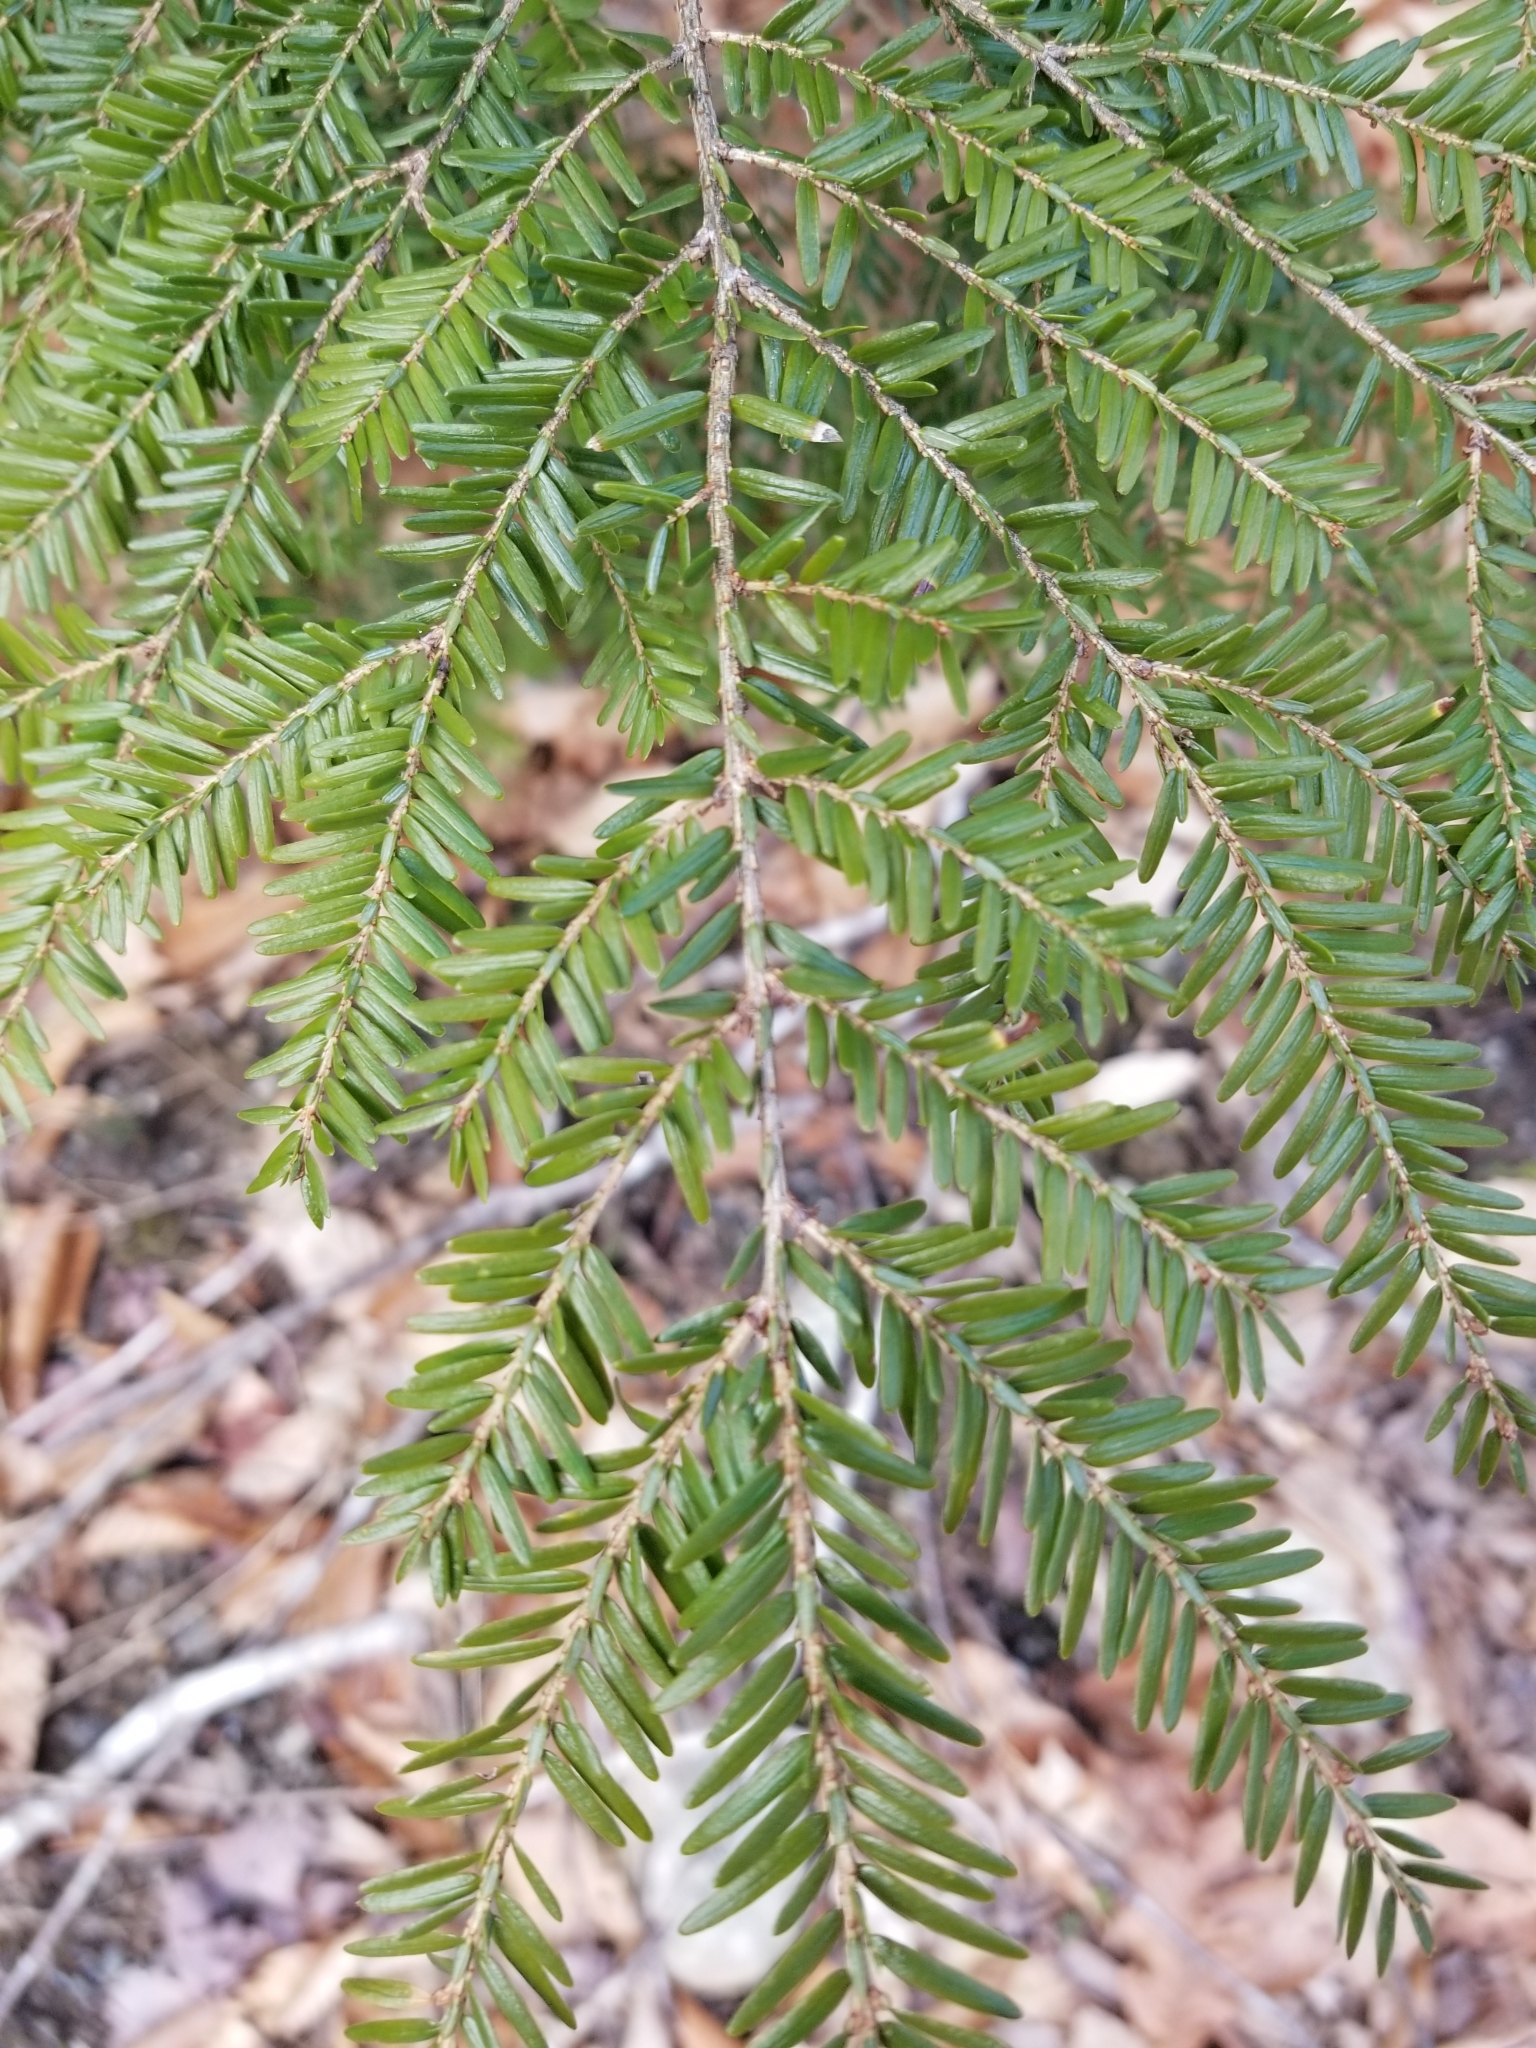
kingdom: Plantae
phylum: Tracheophyta
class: Pinopsida
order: Pinales
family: Pinaceae
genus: Tsuga
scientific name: Tsuga canadensis
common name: Eastern hemlock
